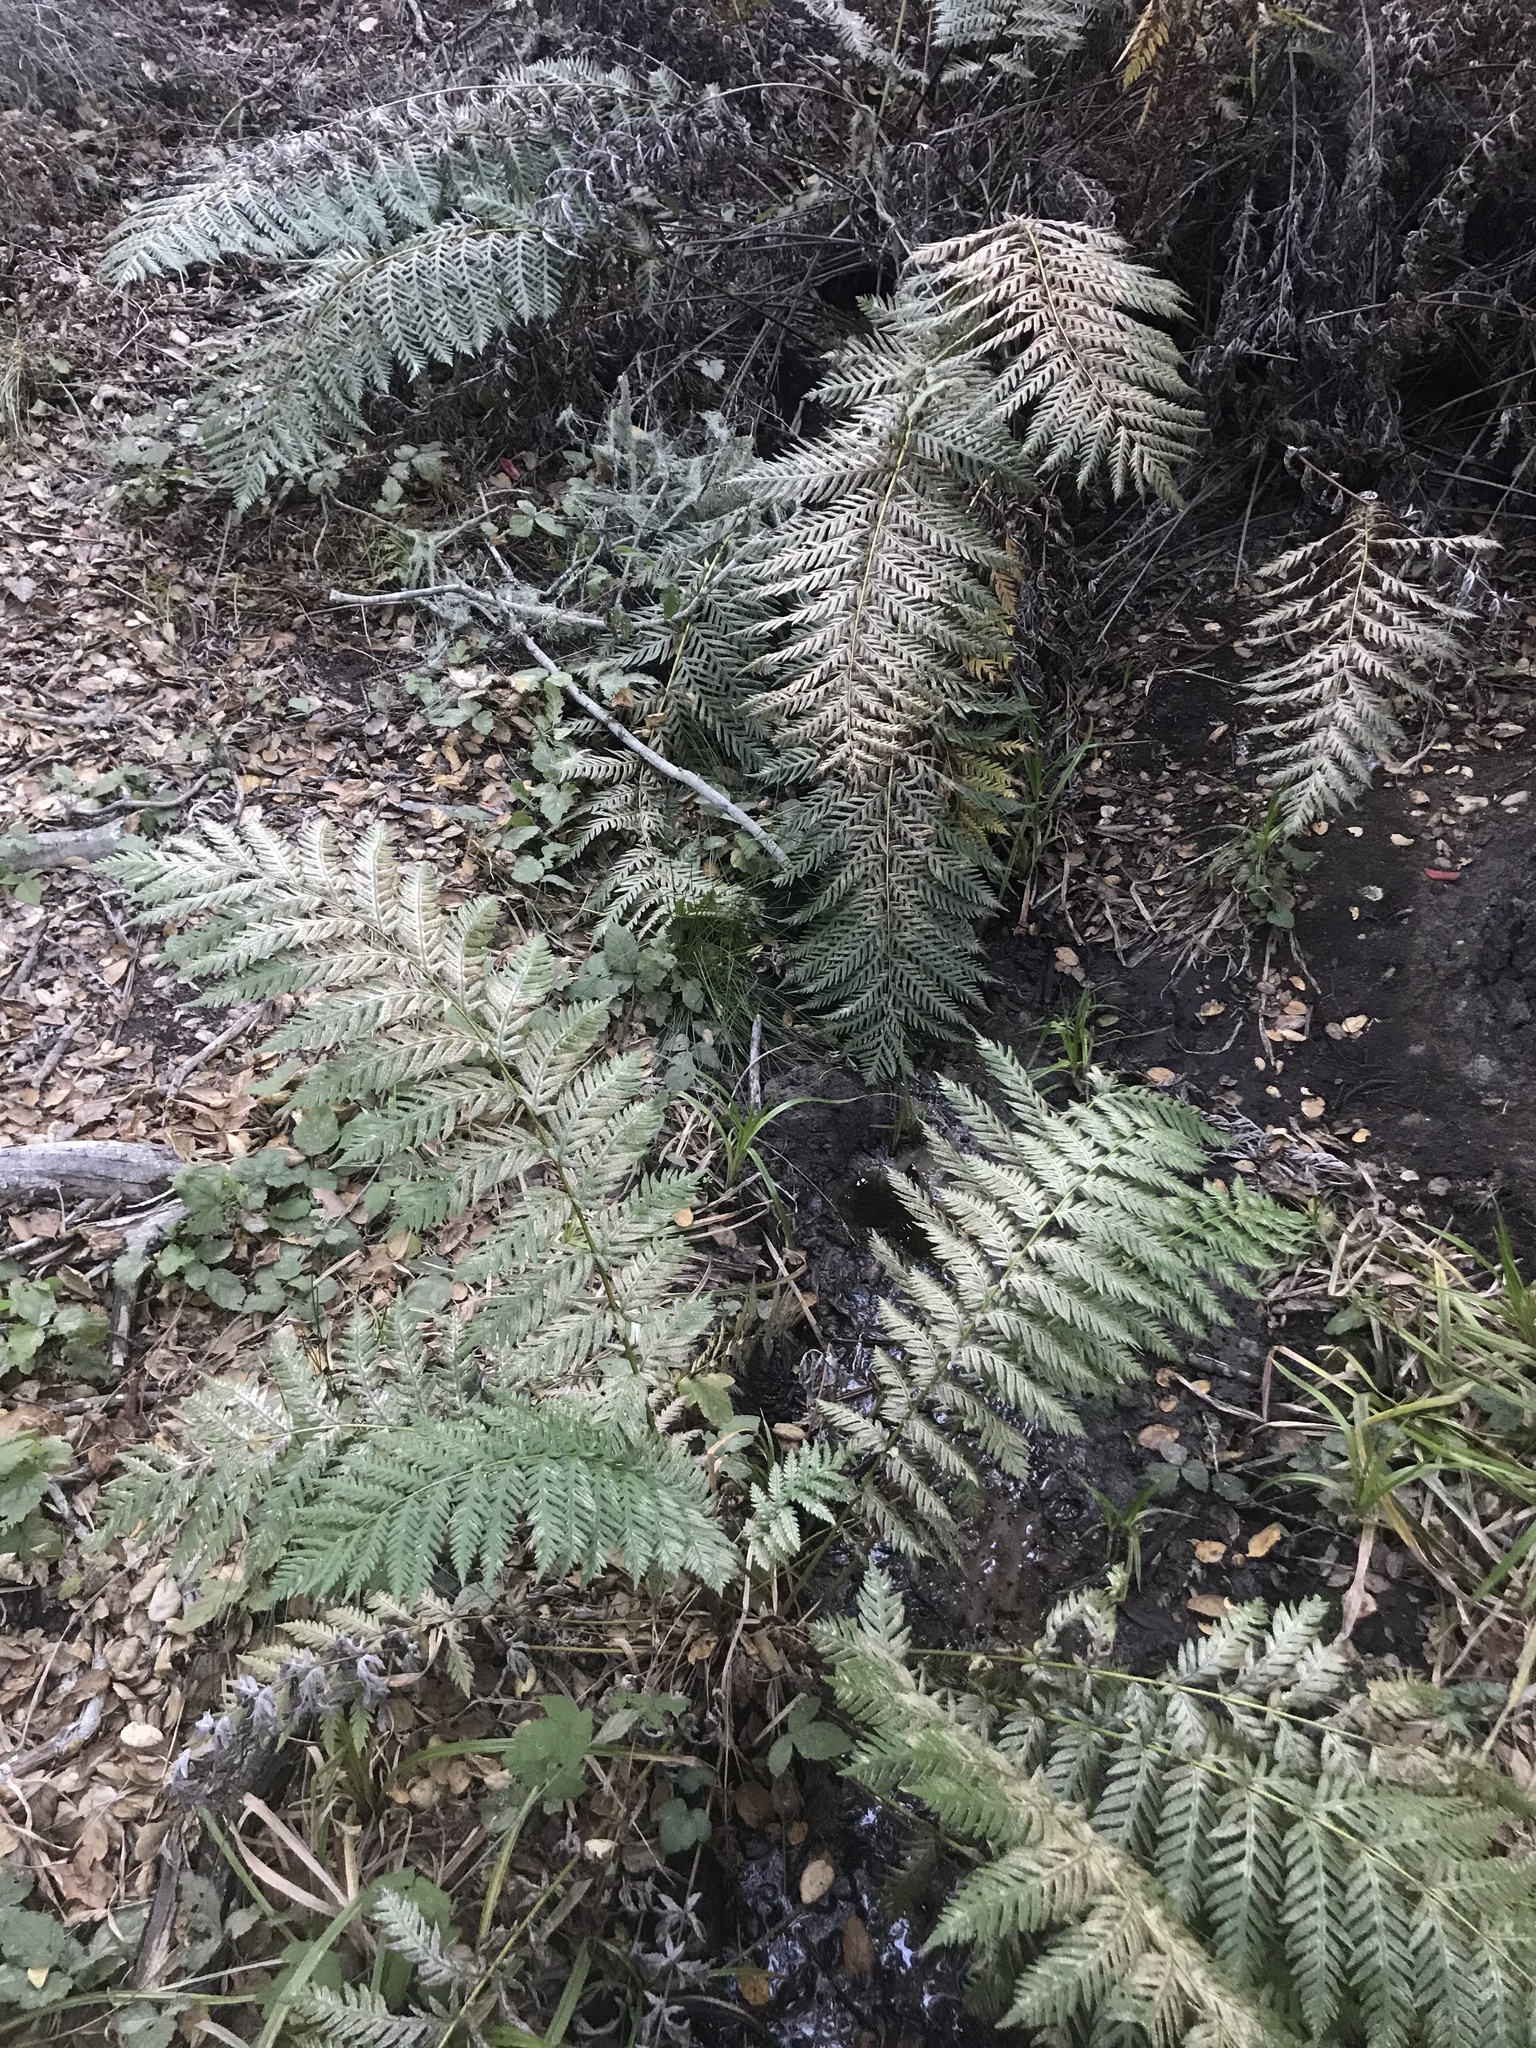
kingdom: Plantae
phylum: Tracheophyta
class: Polypodiopsida
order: Polypodiales
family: Blechnaceae
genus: Woodwardia
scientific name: Woodwardia fimbriata
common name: Giant chain fern
